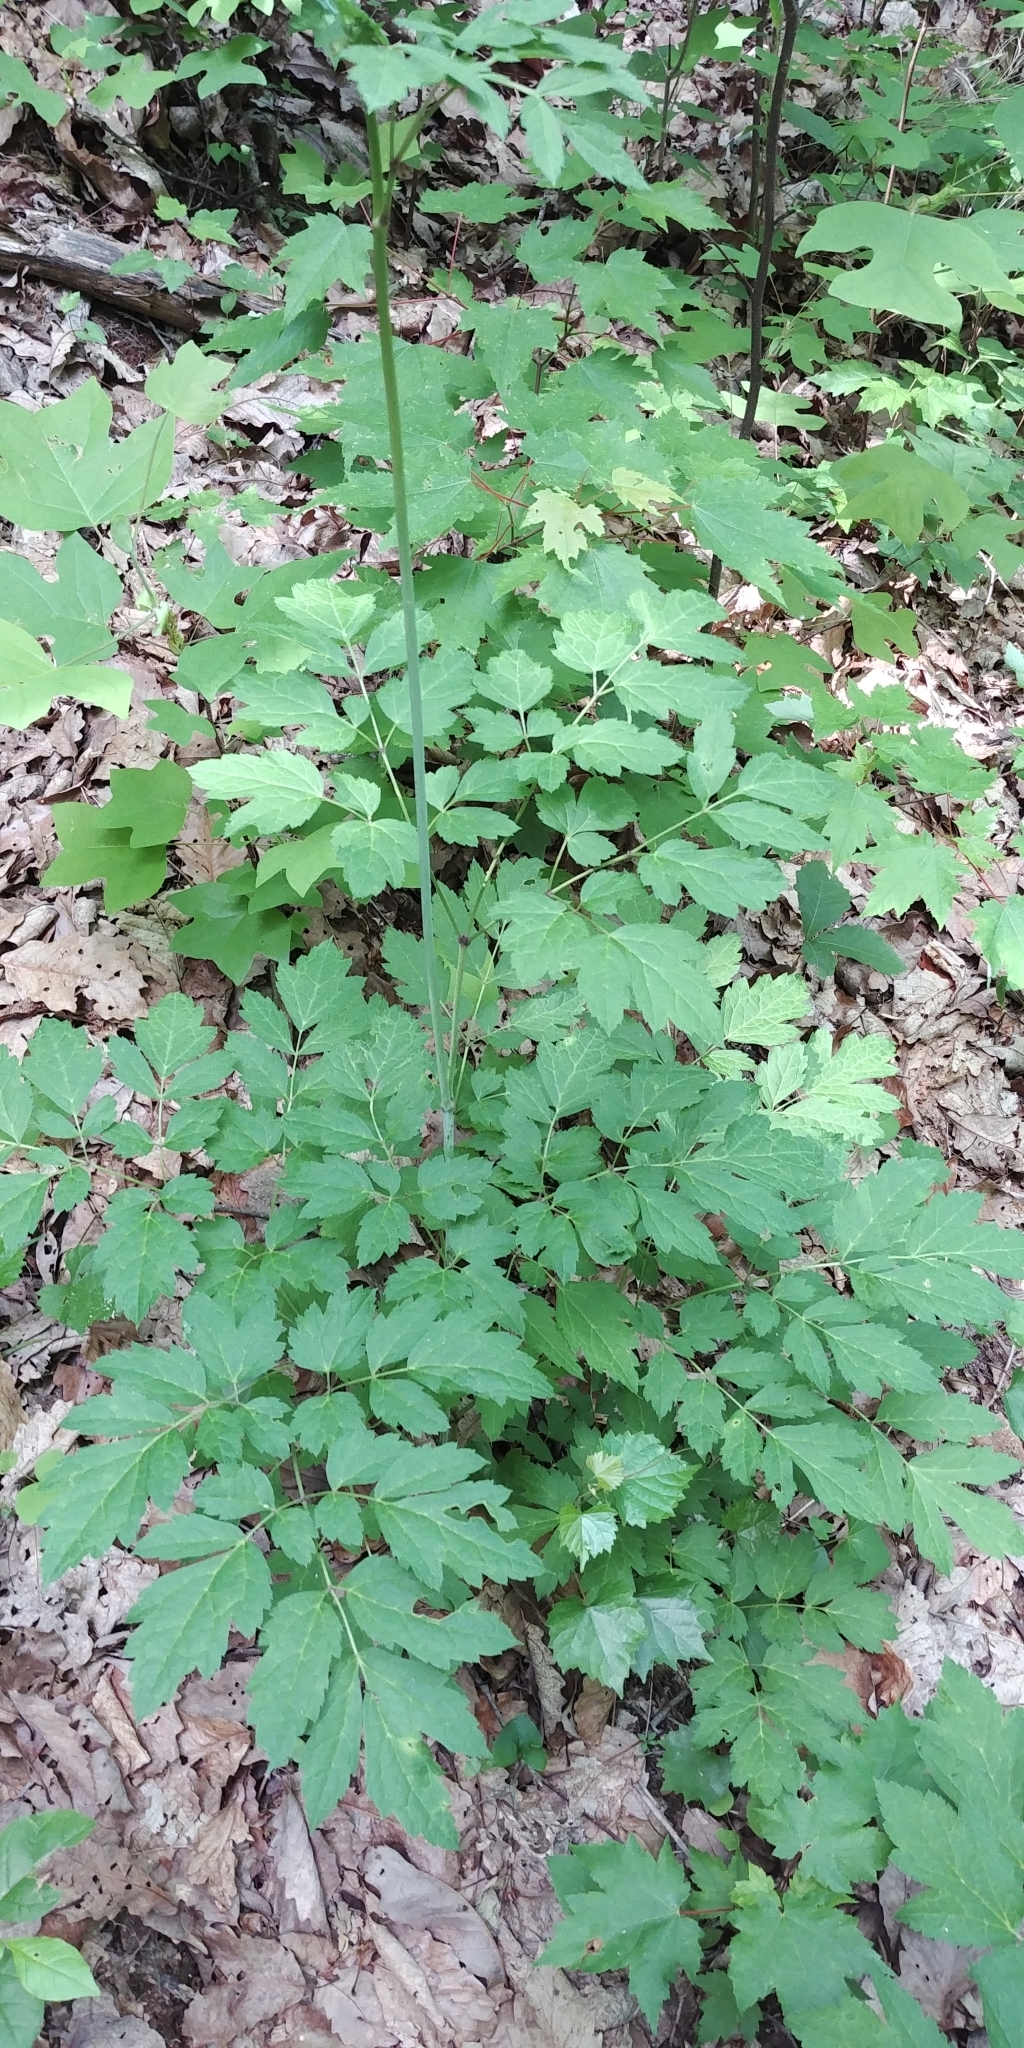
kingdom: Plantae
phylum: Tracheophyta
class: Magnoliopsida
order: Ranunculales
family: Ranunculaceae
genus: Actaea
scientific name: Actaea racemosa
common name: Black cohosh
